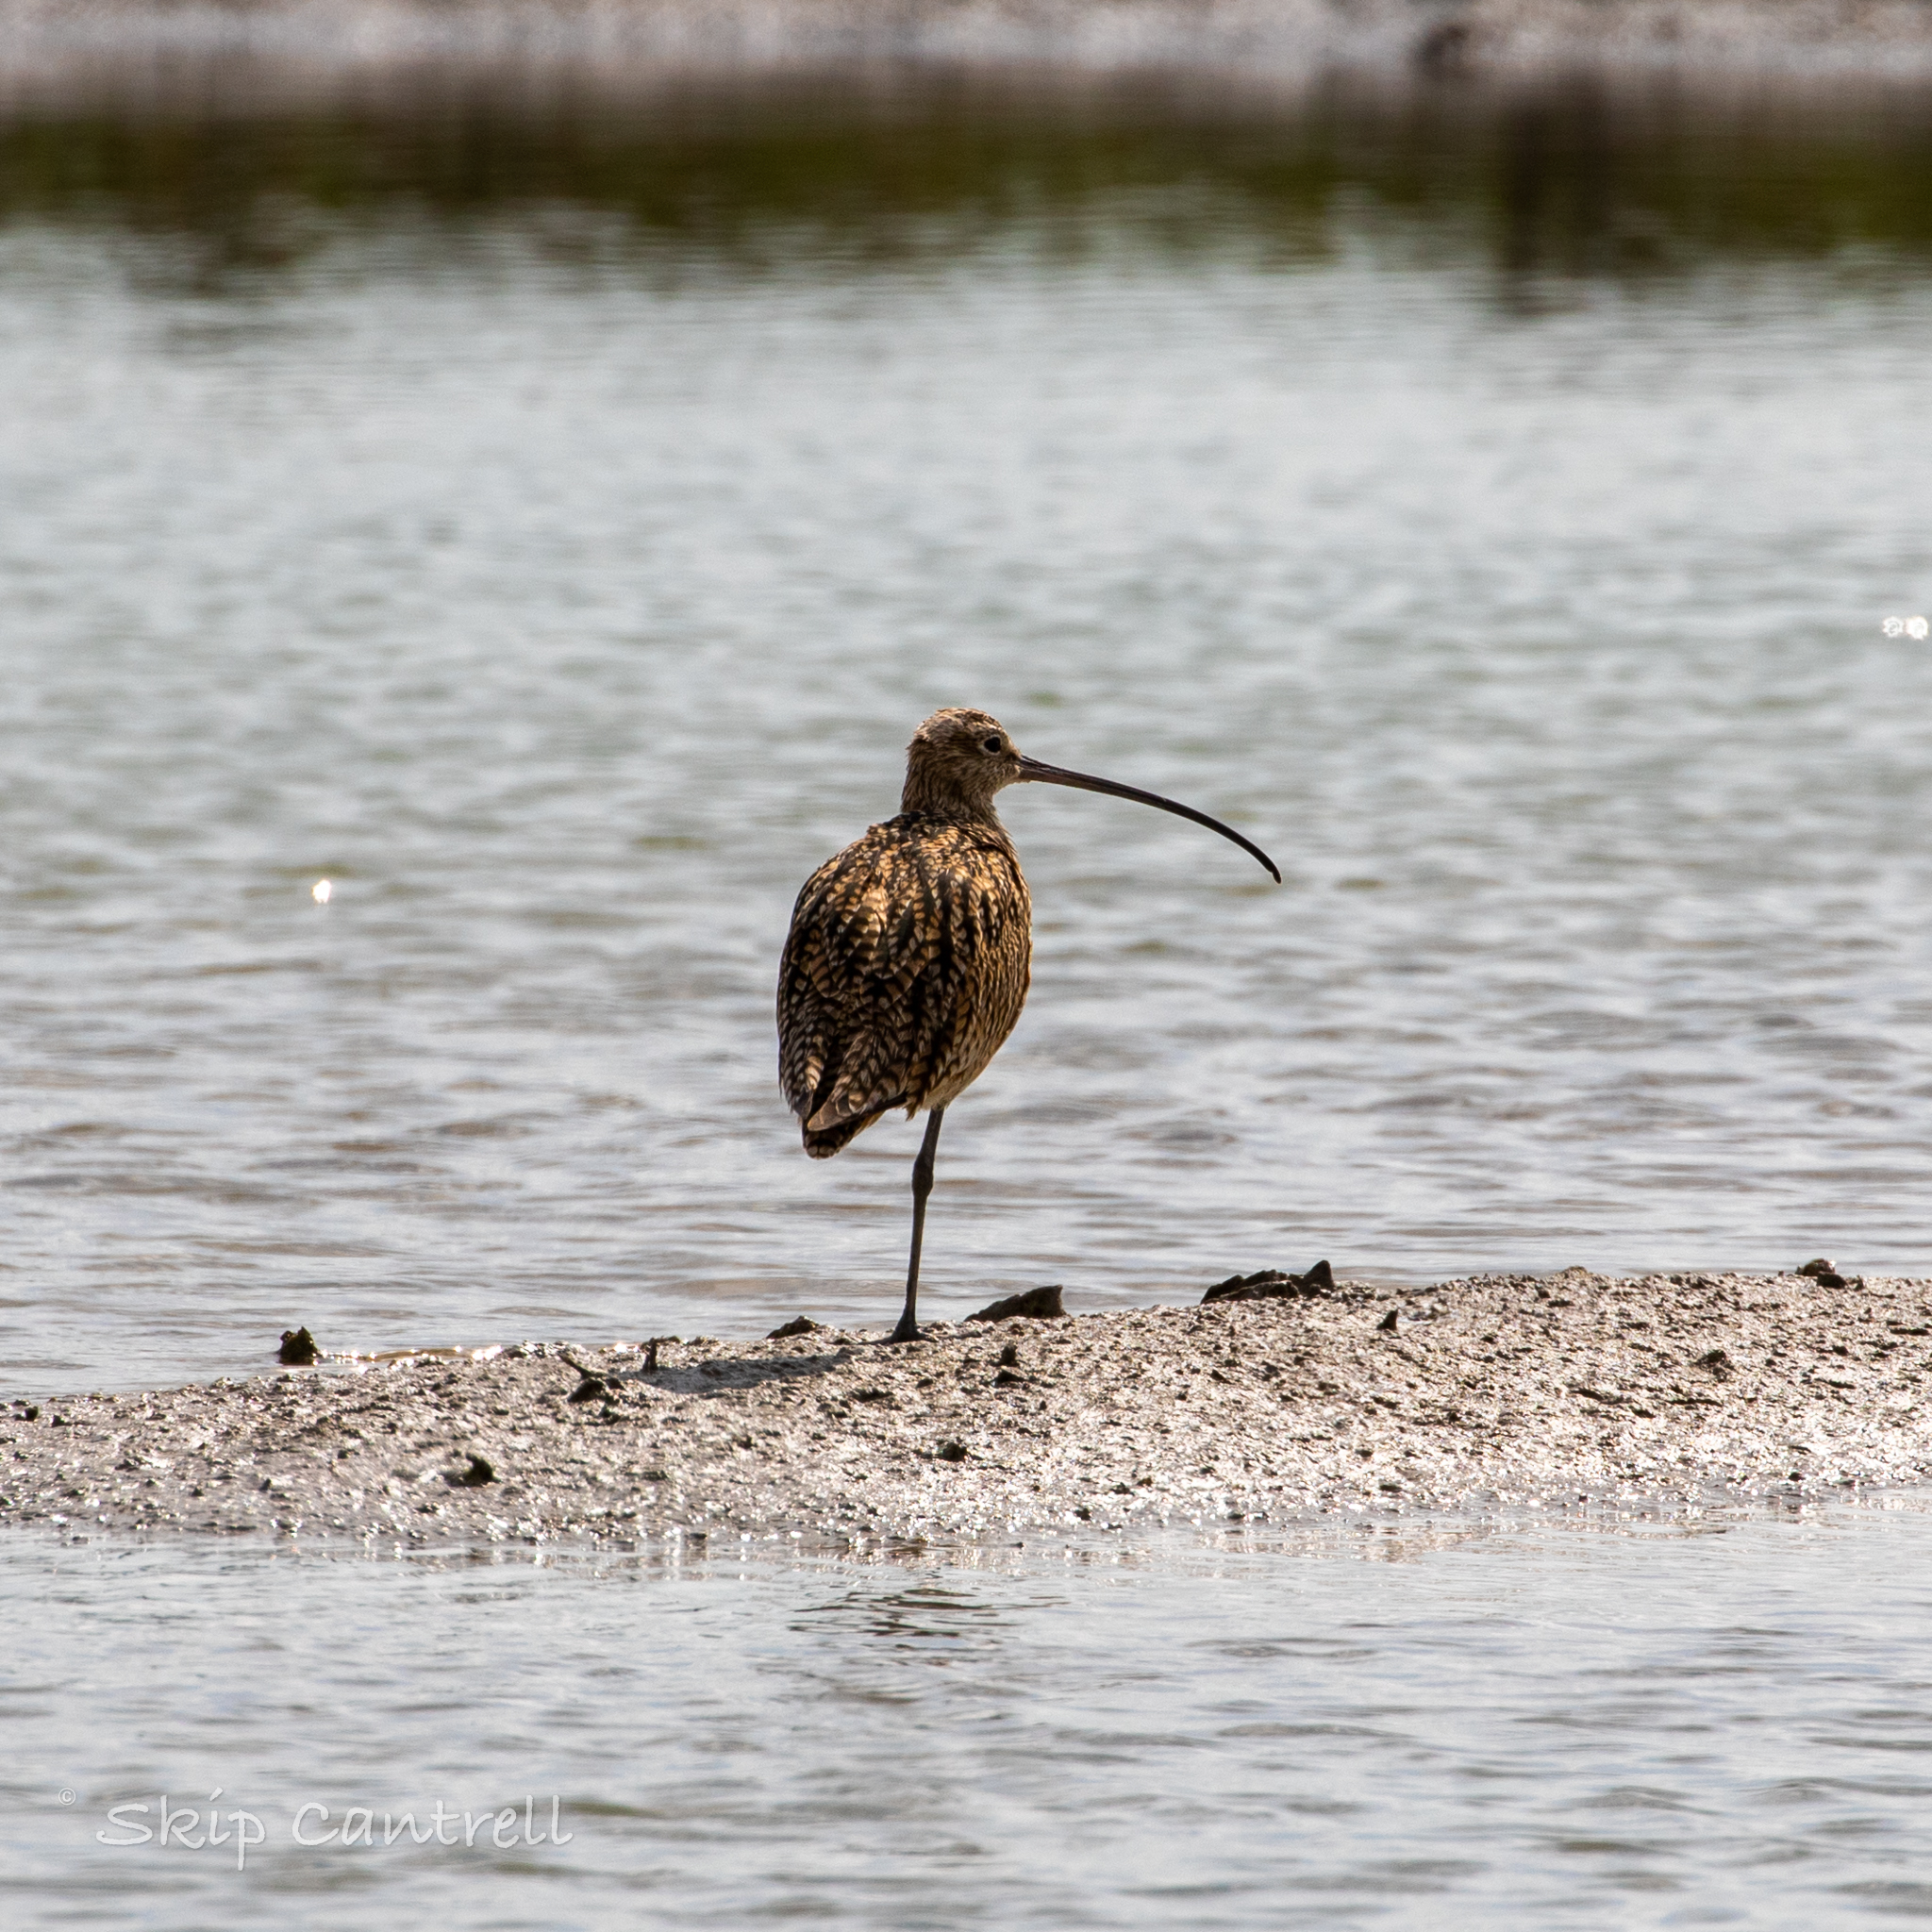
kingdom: Animalia
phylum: Chordata
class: Aves
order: Charadriiformes
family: Scolopacidae
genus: Numenius
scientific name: Numenius americanus
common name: Long-billed curlew
